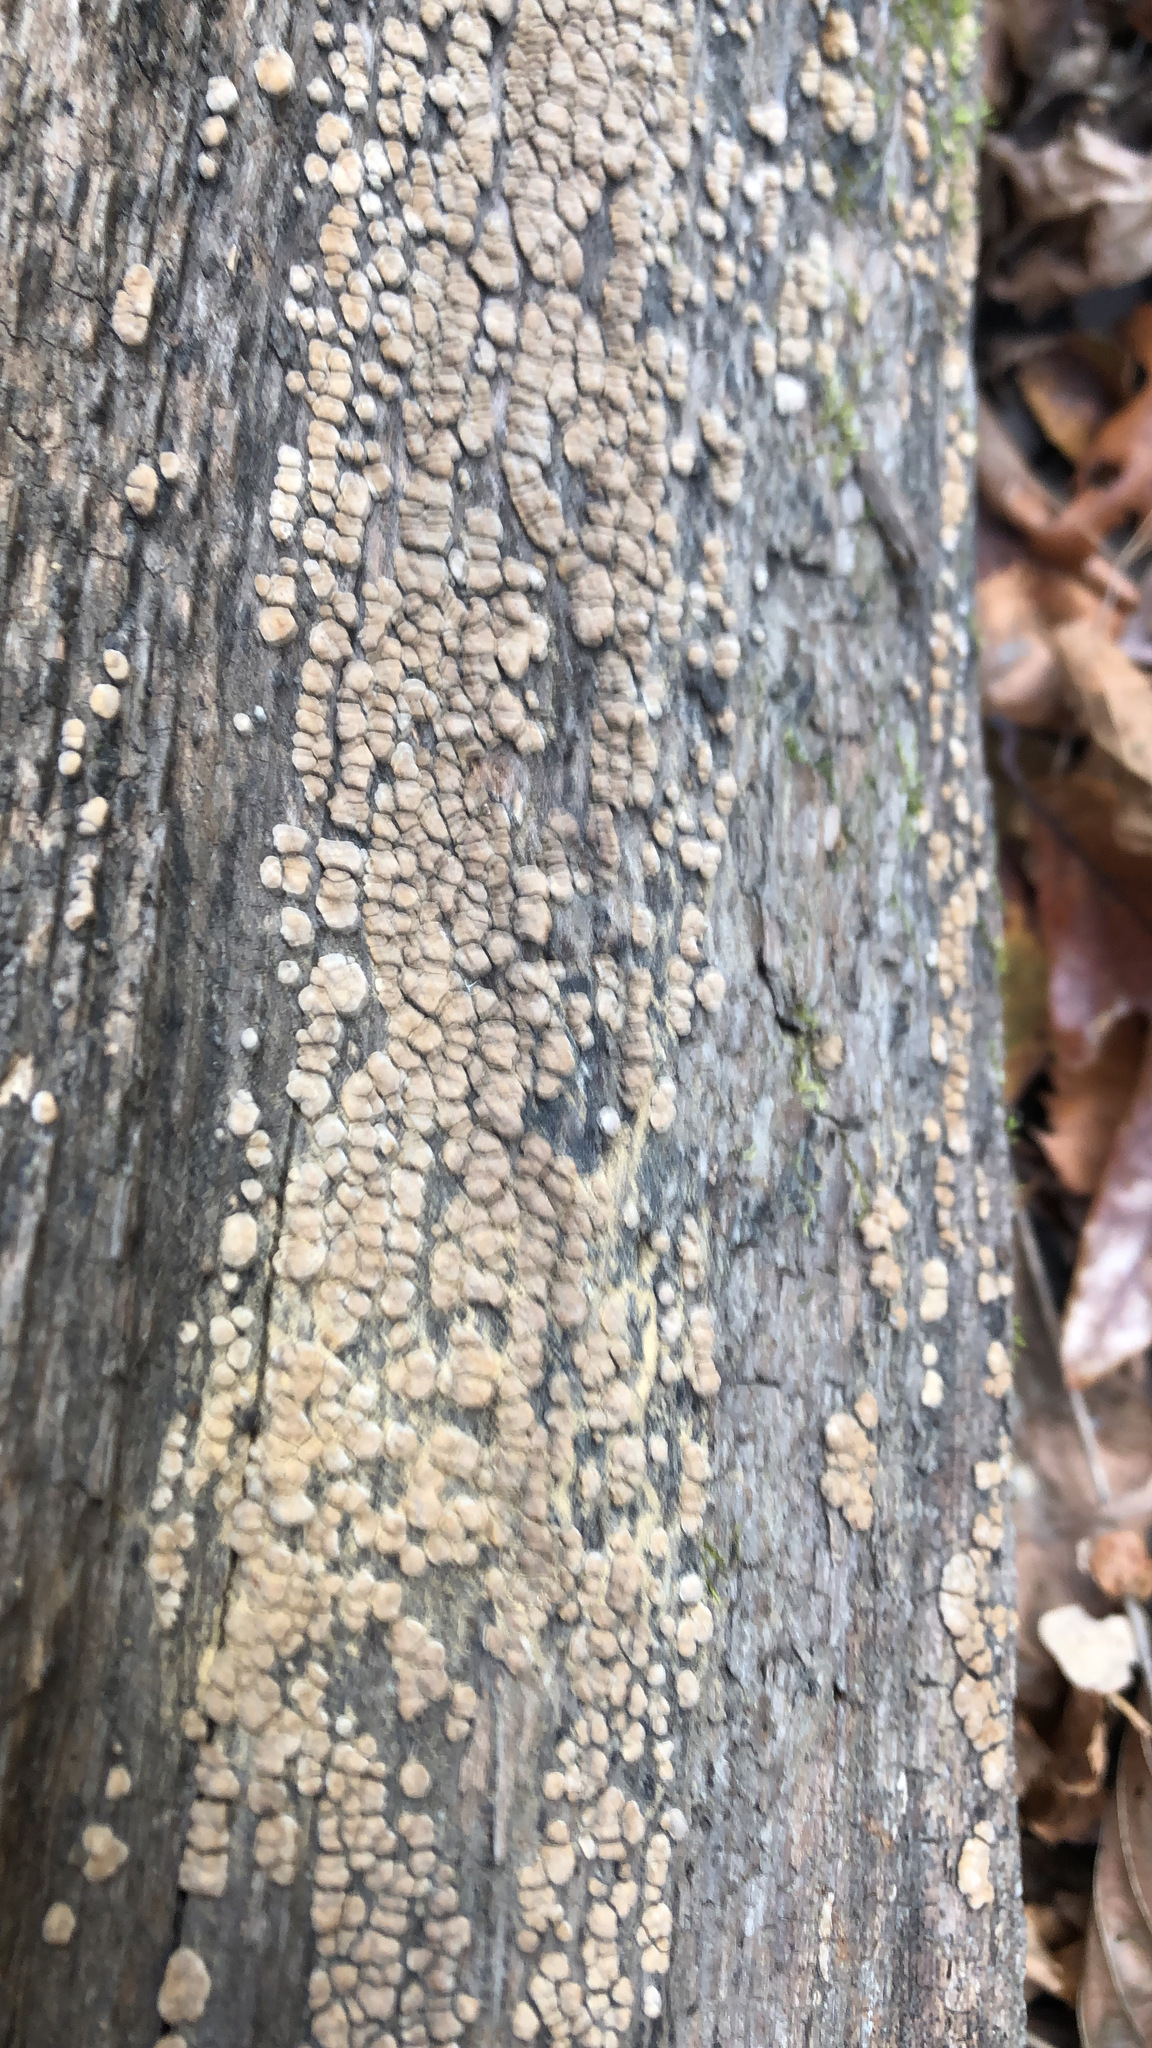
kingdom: Fungi
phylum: Basidiomycota
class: Agaricomycetes
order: Russulales
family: Stereaceae
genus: Xylobolus
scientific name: Xylobolus frustulatus
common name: Ceramic parchment
